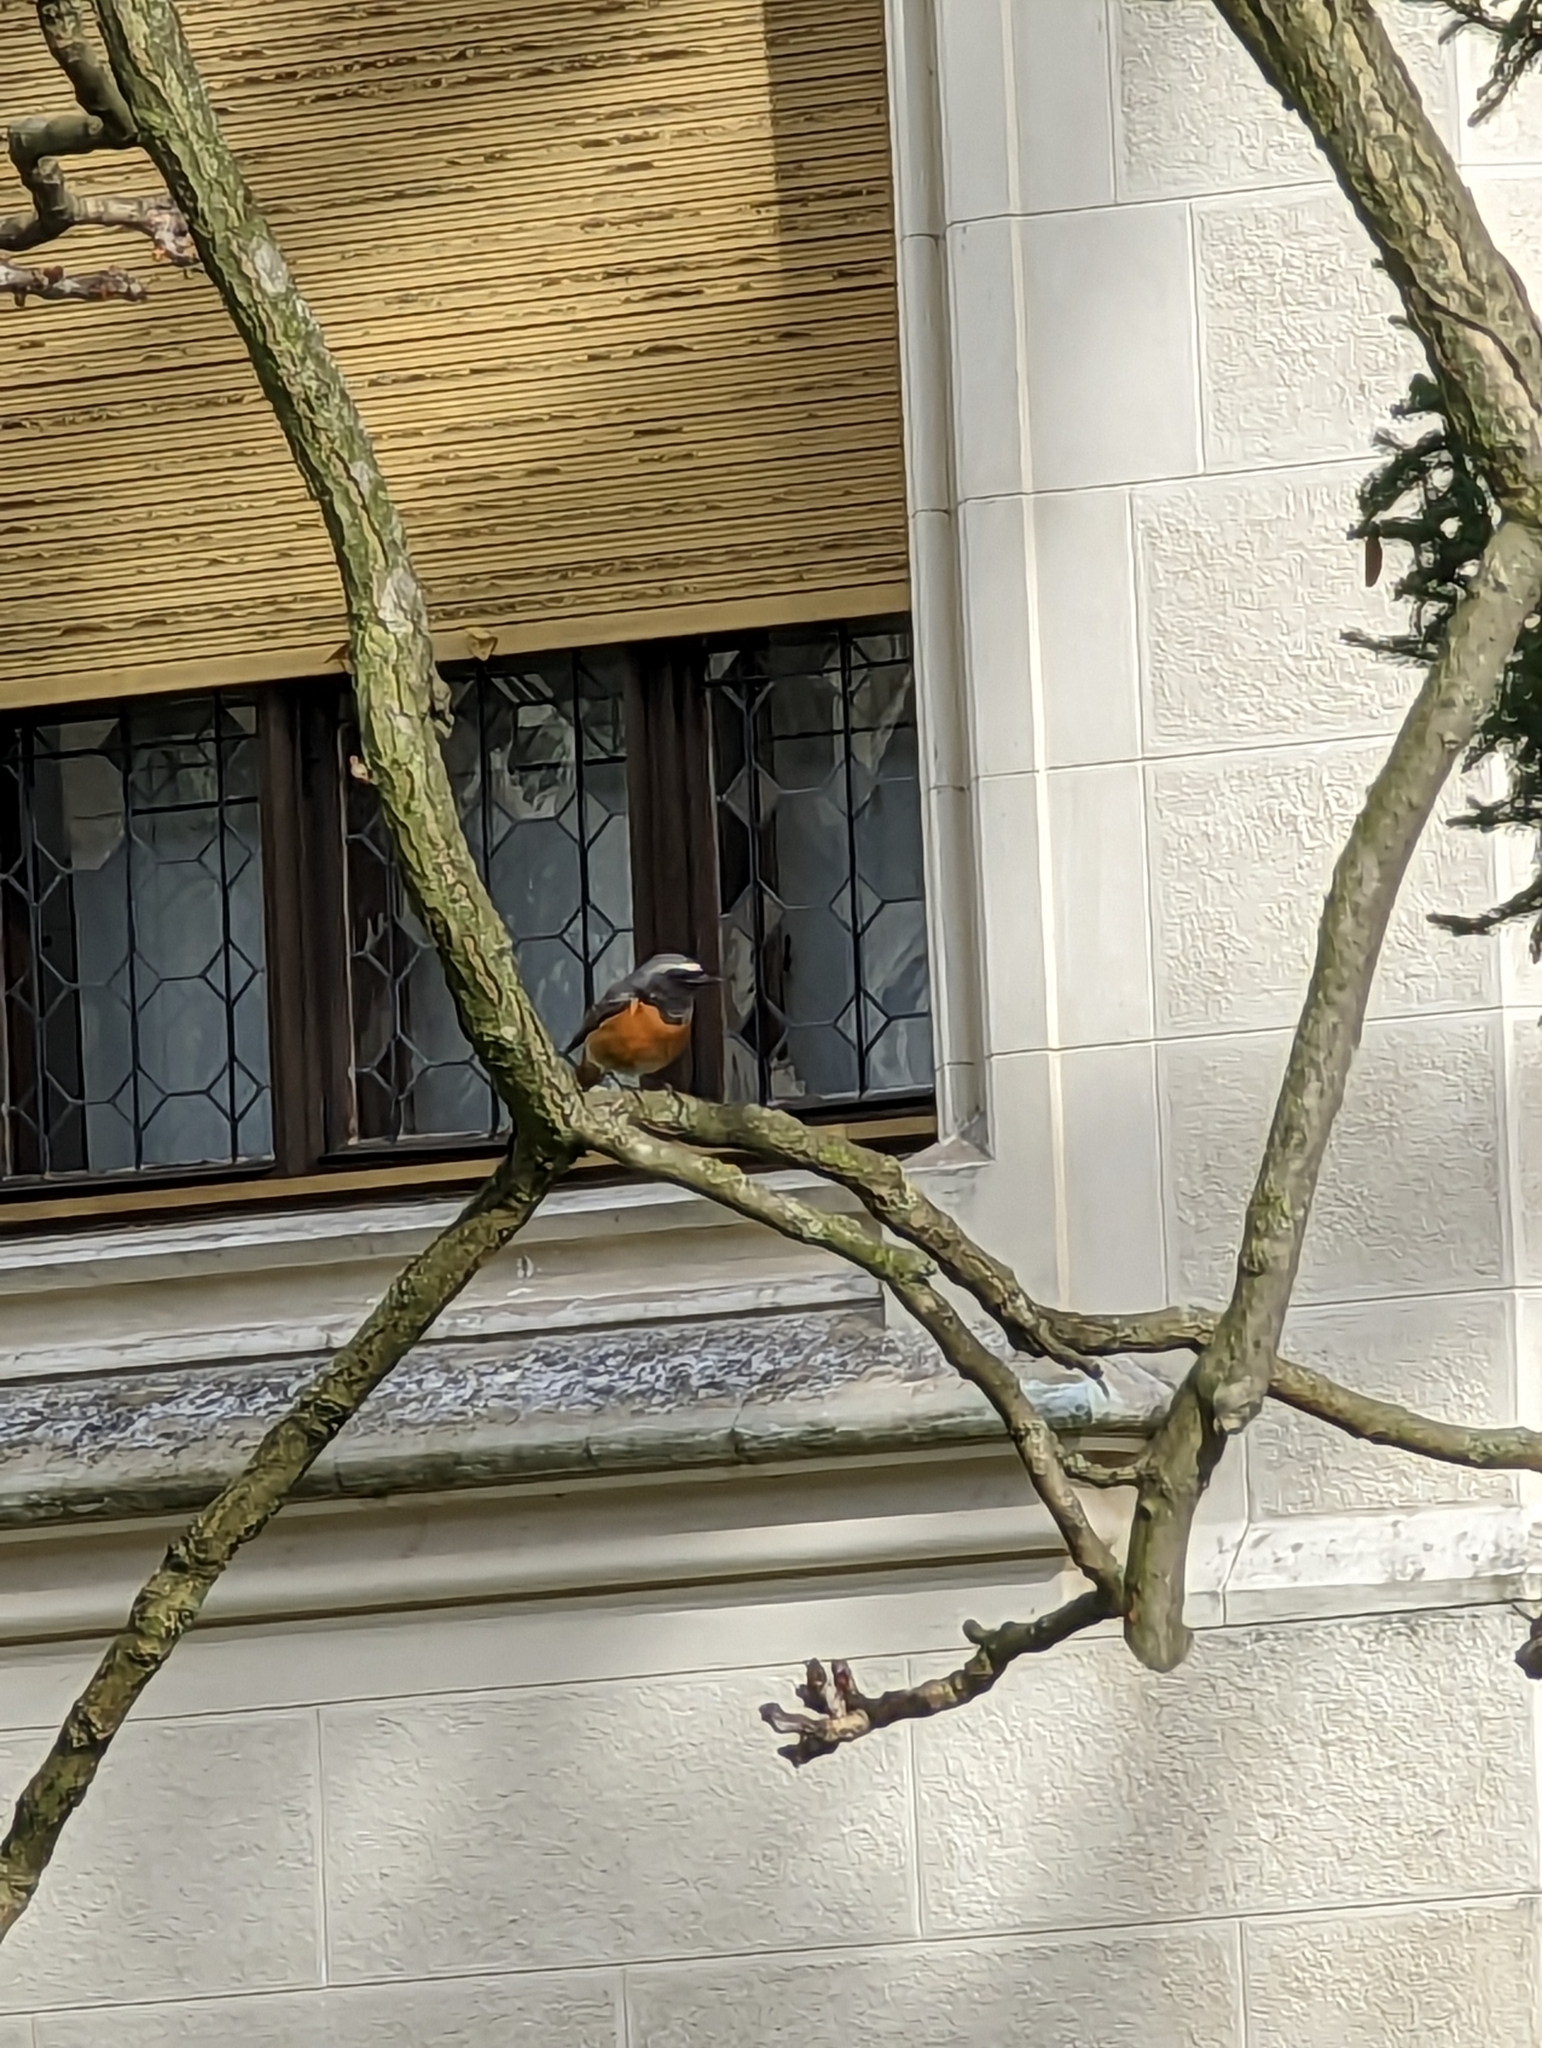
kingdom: Animalia
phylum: Chordata
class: Aves
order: Passeriformes
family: Muscicapidae
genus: Phoenicurus
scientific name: Phoenicurus phoenicurus
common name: Common redstart
